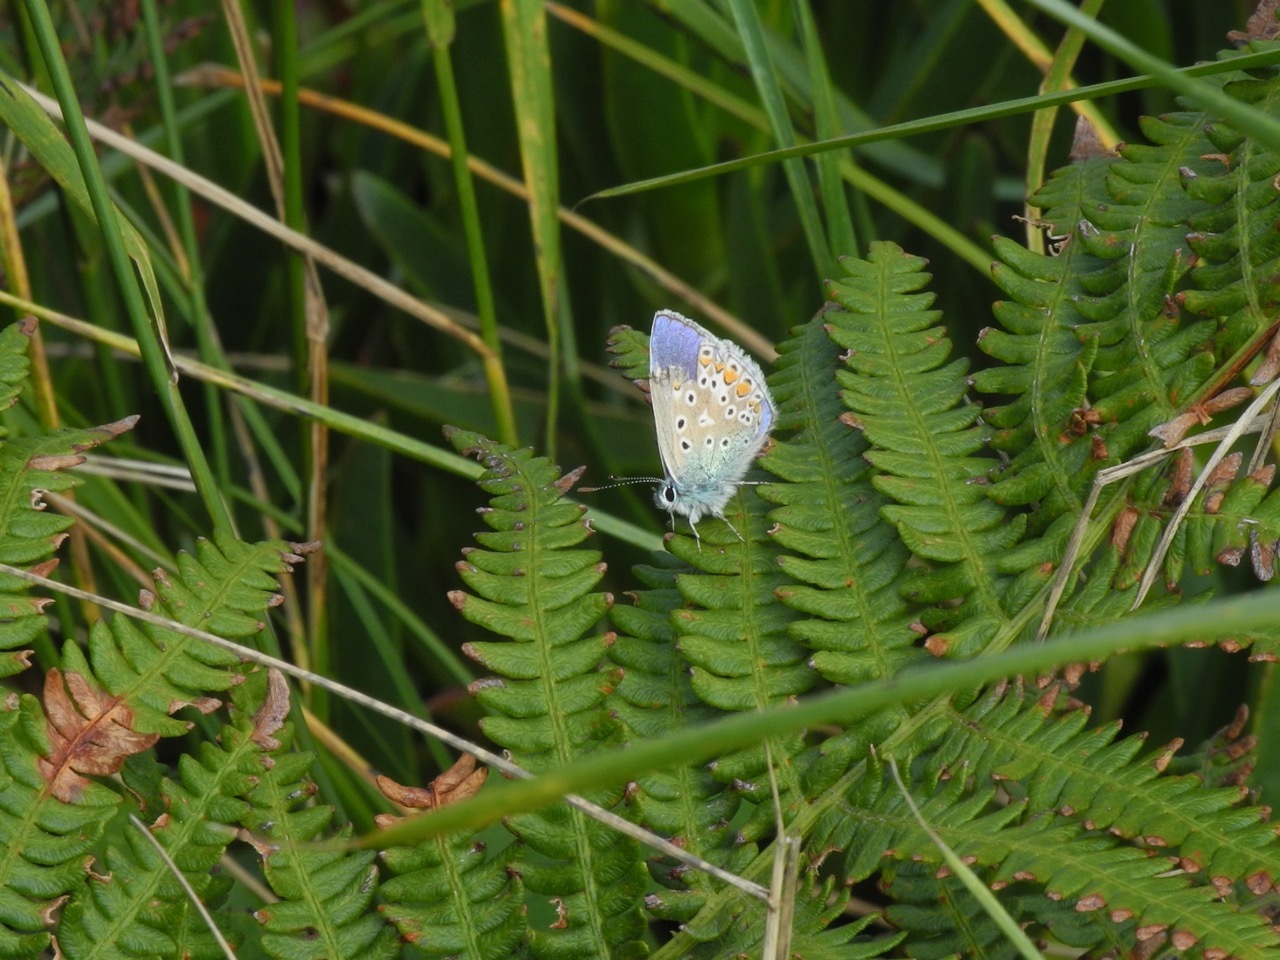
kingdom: Animalia
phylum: Arthropoda
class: Insecta
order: Lepidoptera
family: Lycaenidae
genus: Polyommatus
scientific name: Polyommatus icarus
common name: Common blue
